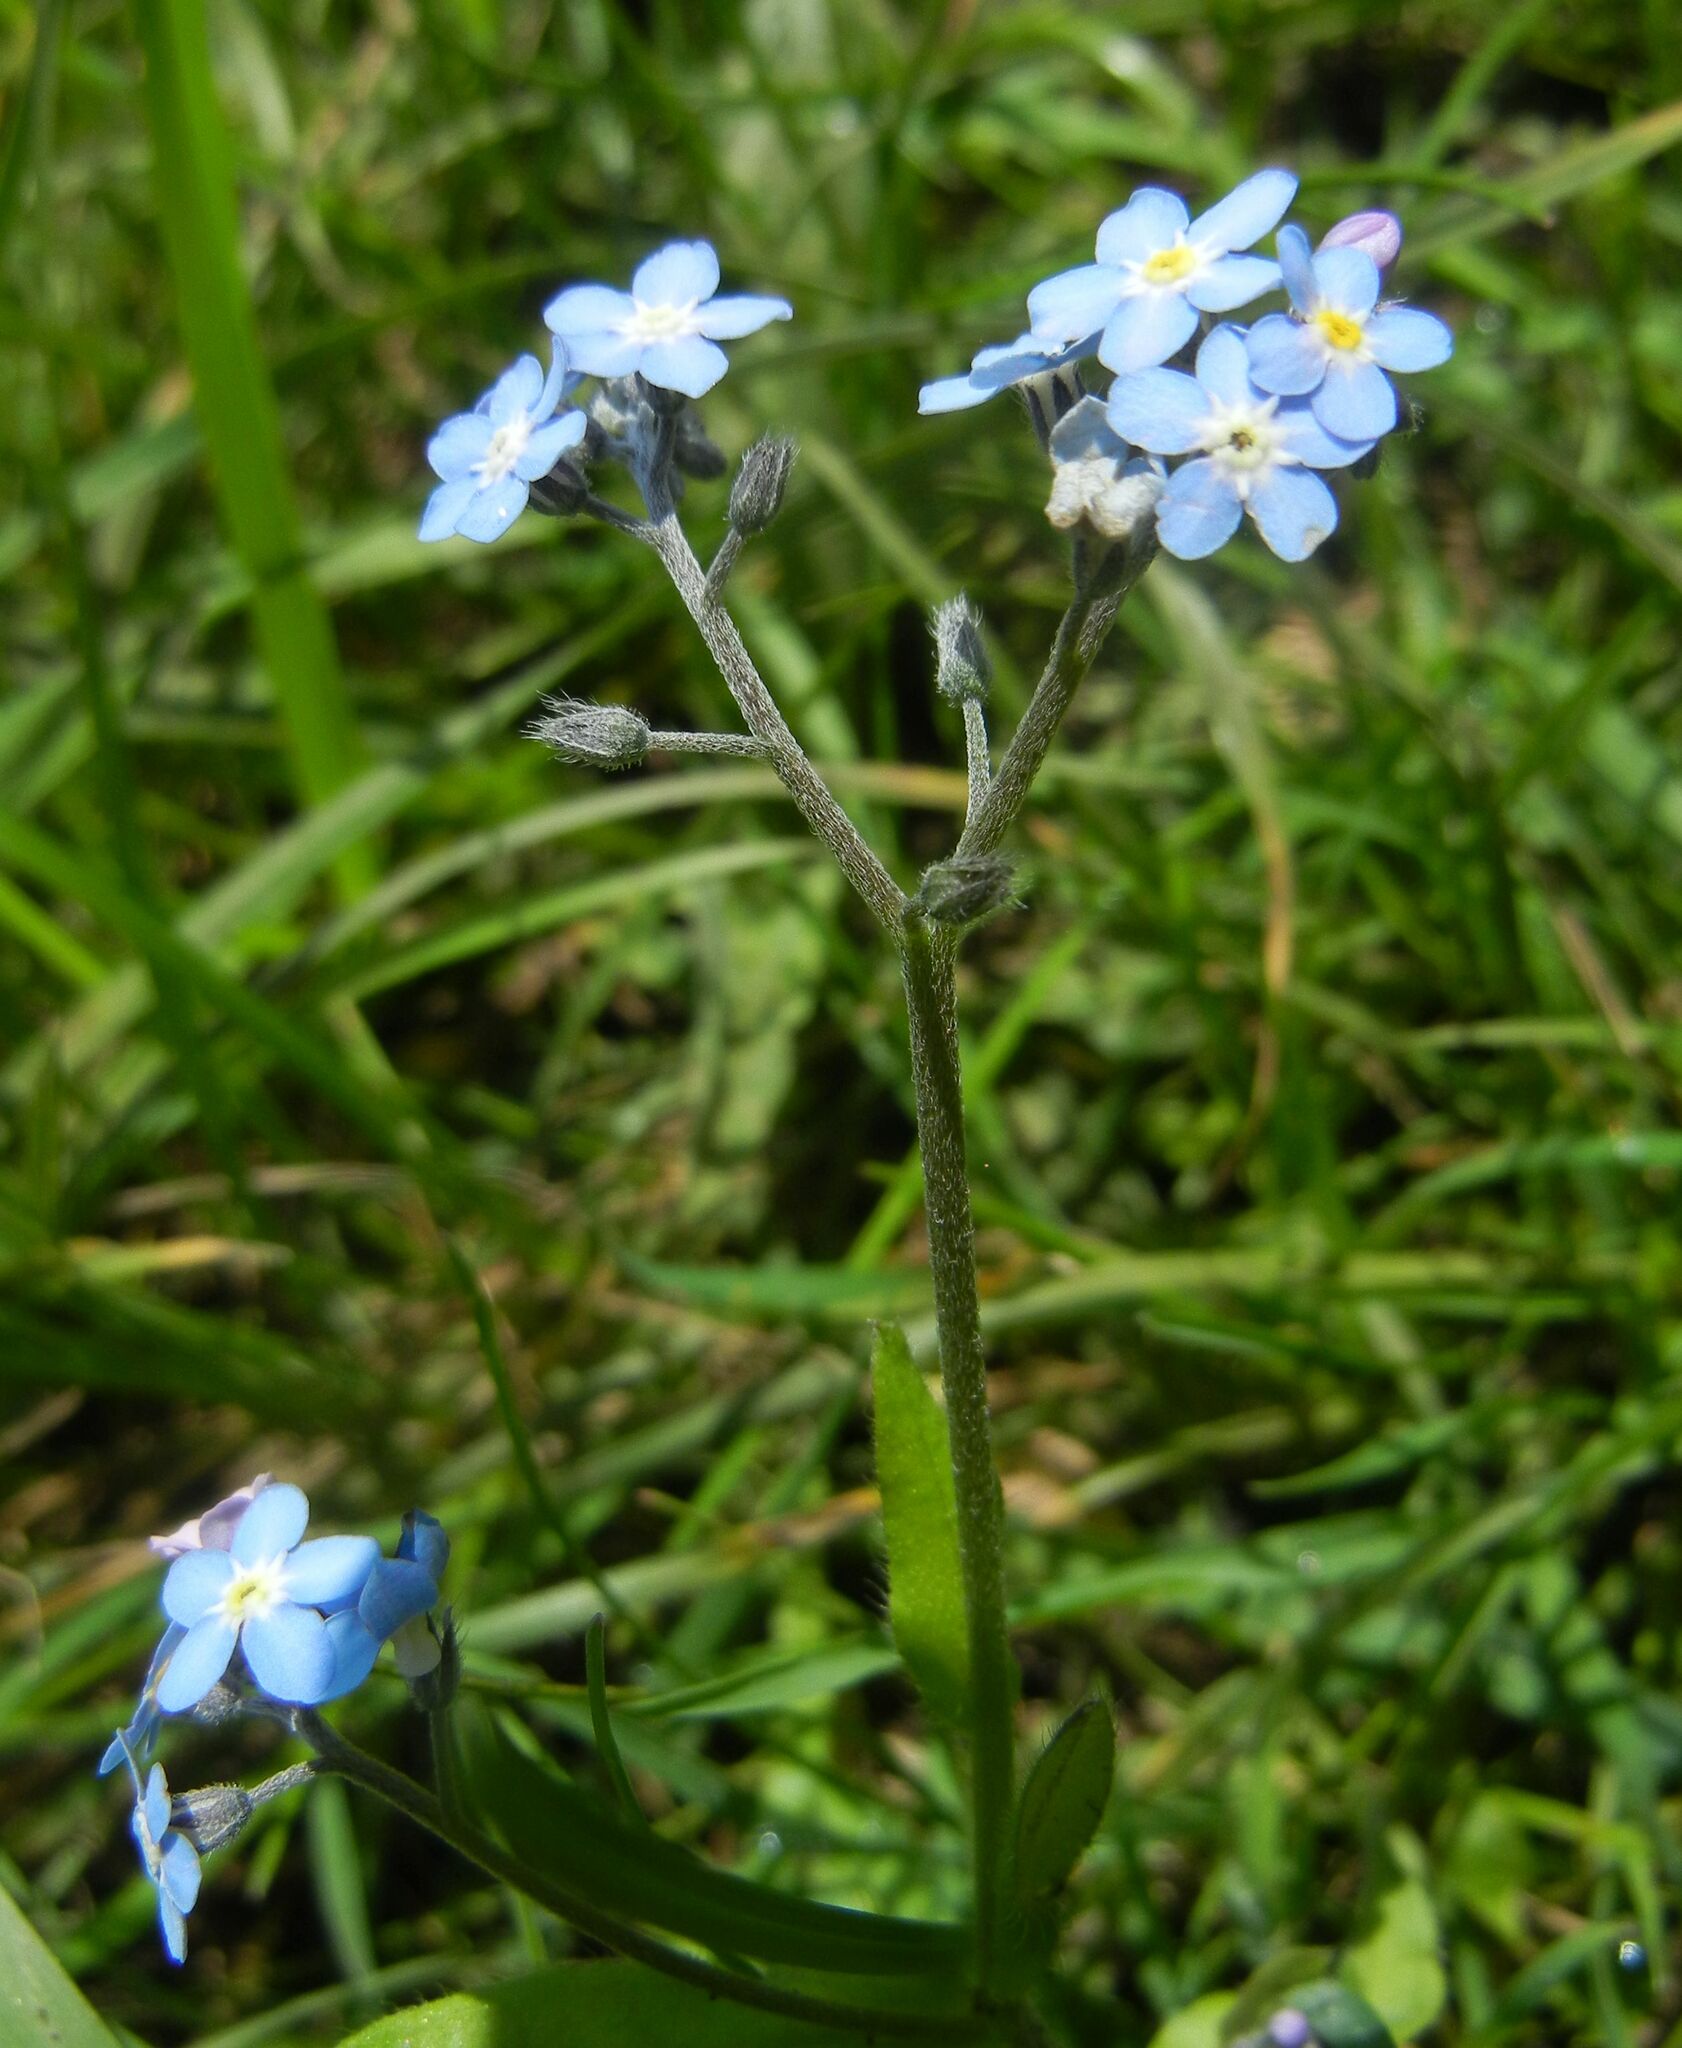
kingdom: Plantae
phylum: Tracheophyta
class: Magnoliopsida
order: Boraginales
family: Boraginaceae
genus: Myosotis
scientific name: Myosotis sylvatica
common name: Wood forget-me-not
